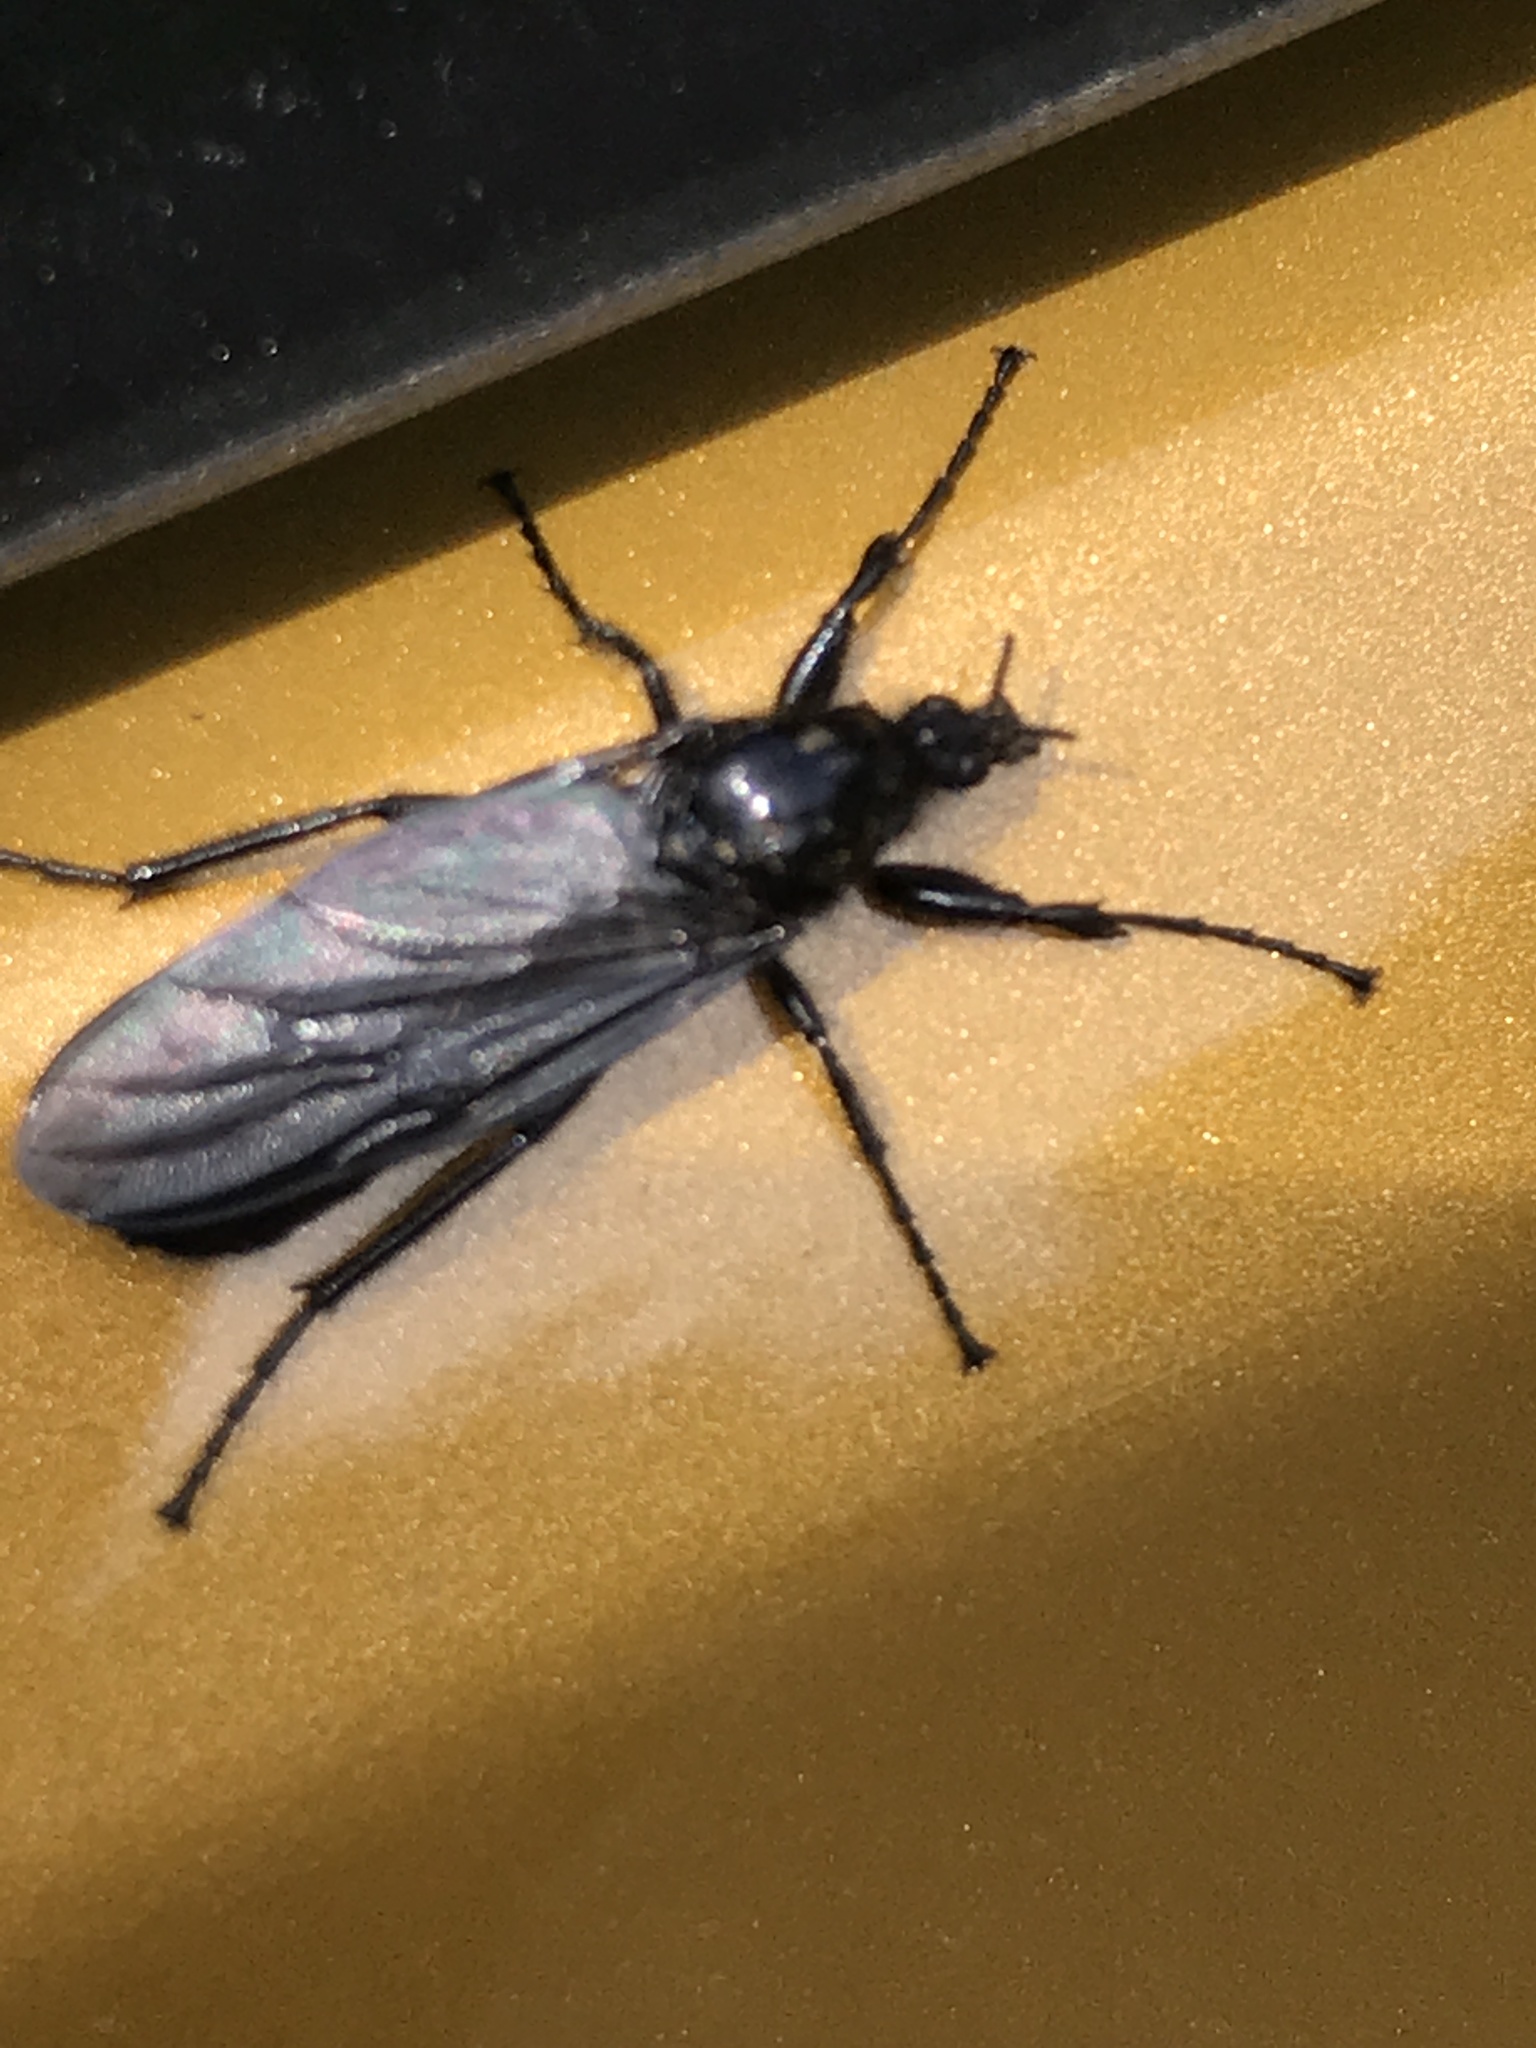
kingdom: Animalia
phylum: Arthropoda
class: Insecta
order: Diptera
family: Bibionidae
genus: Bibio
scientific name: Bibio marci
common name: St marks fly
